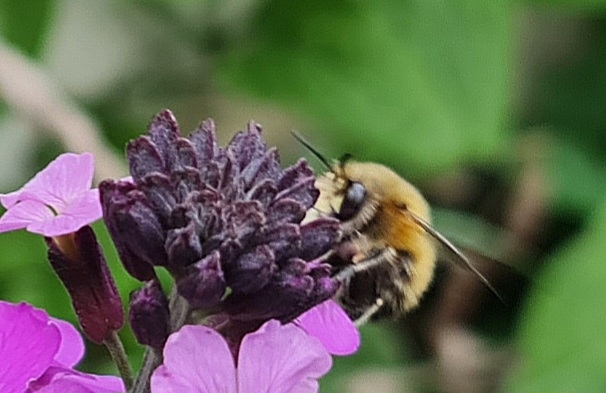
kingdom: Animalia
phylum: Arthropoda
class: Insecta
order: Hymenoptera
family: Apidae
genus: Anthophora
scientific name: Anthophora plumipes
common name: Hairy-footed flower bee
